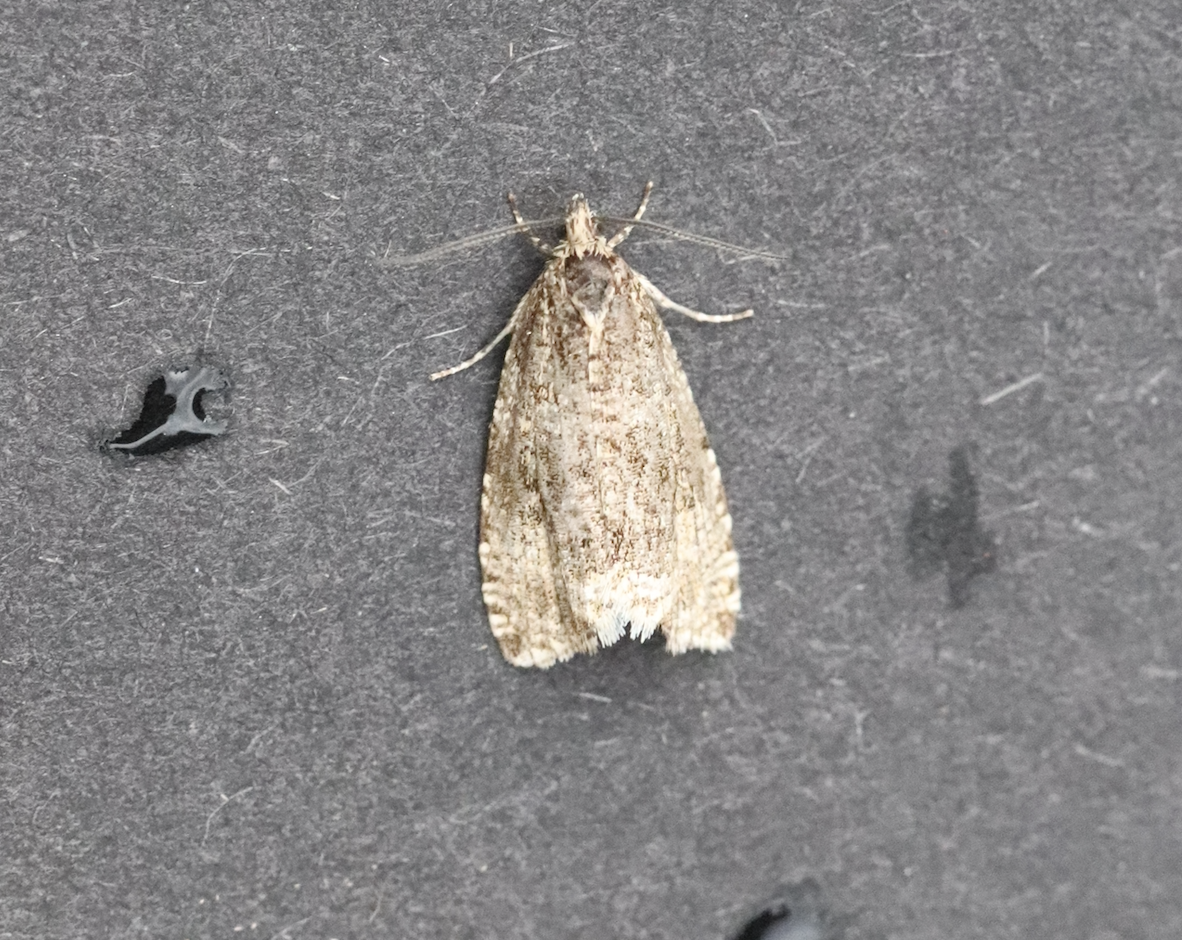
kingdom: Animalia
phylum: Arthropoda
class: Insecta
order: Lepidoptera
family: Tortricidae
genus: Syricoris
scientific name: Syricoris lacunana
